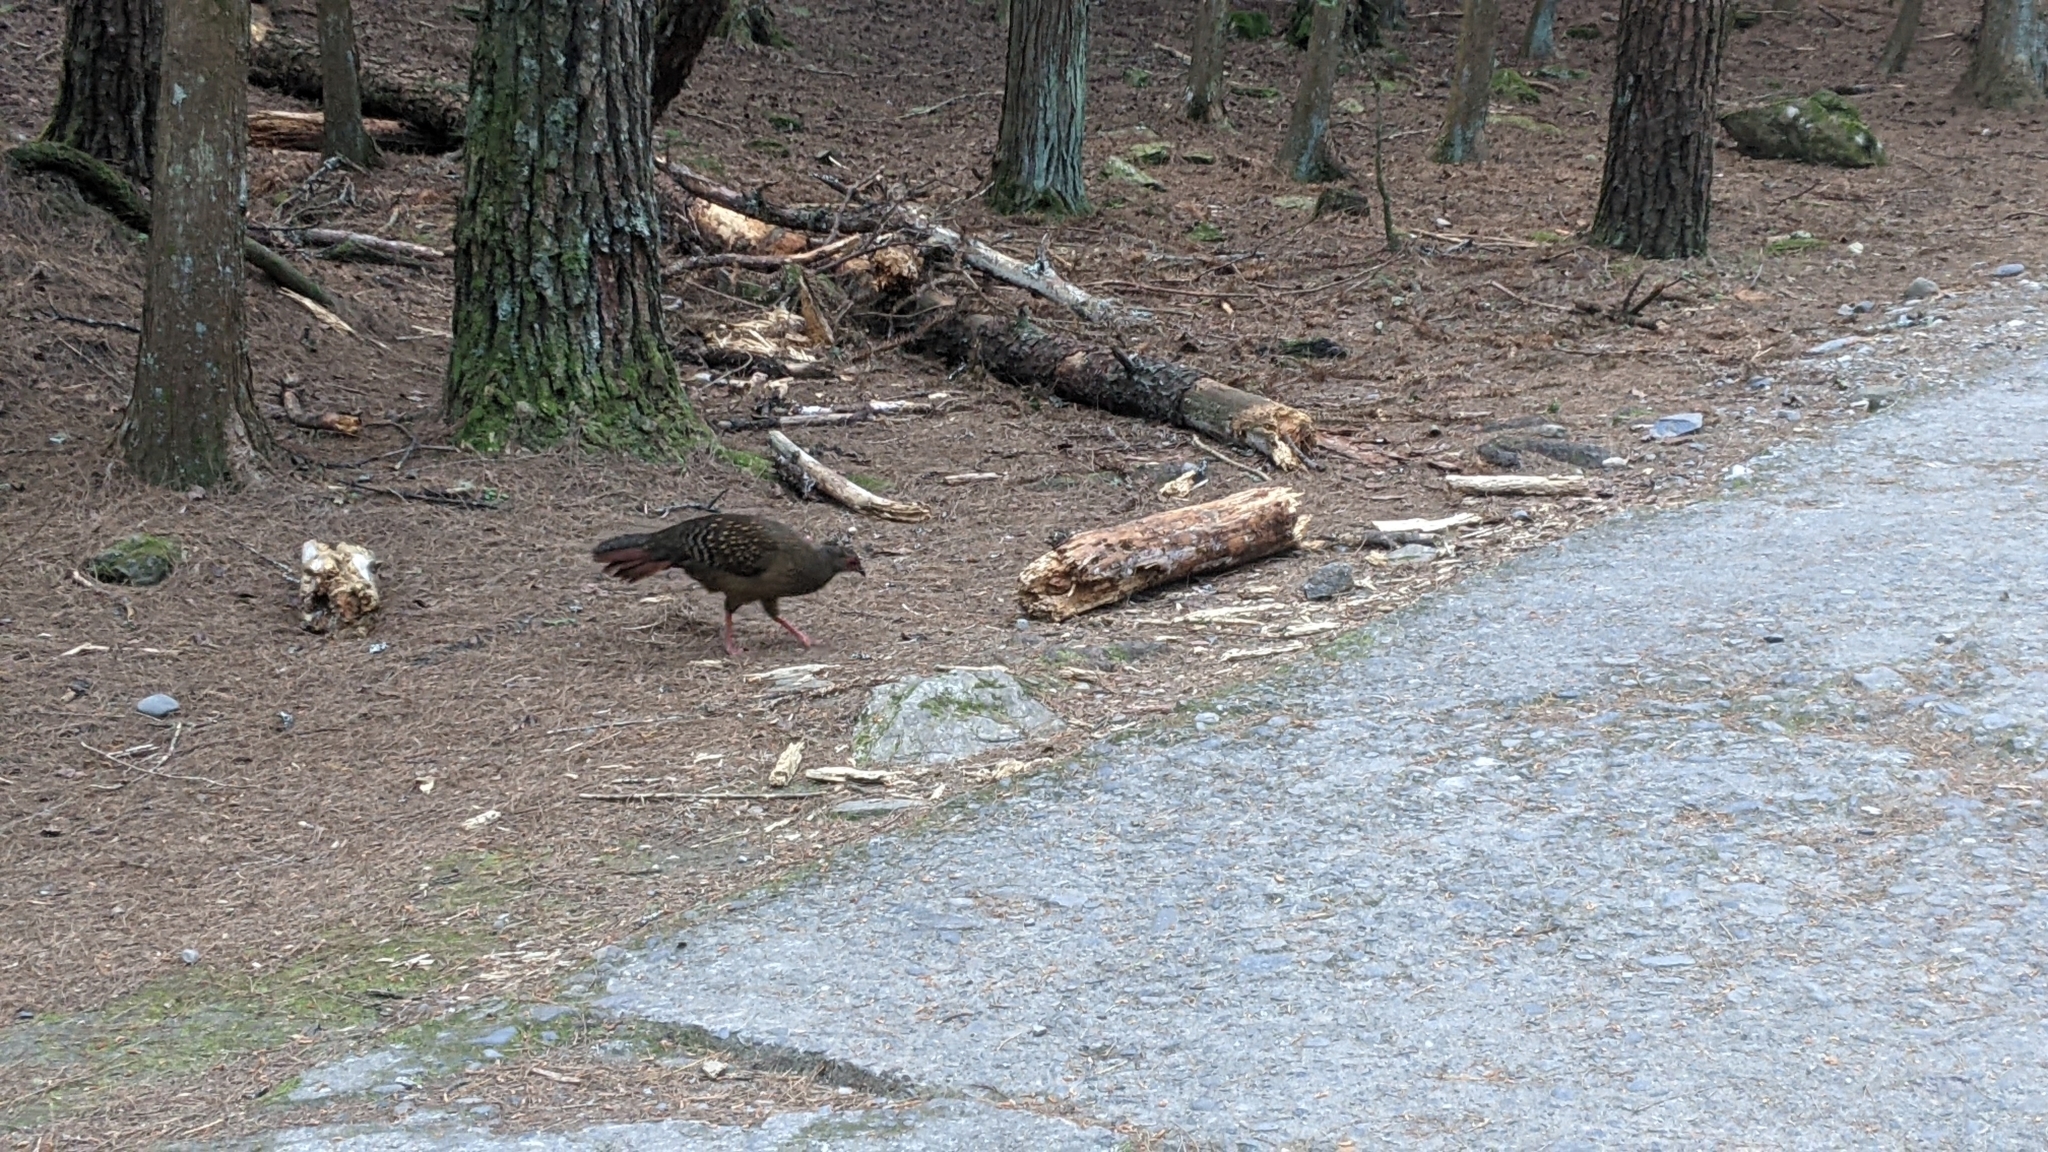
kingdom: Animalia
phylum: Chordata
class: Aves
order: Galliformes
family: Phasianidae
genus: Lophura
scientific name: Lophura swinhoii
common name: Swinhoe's pheasant
